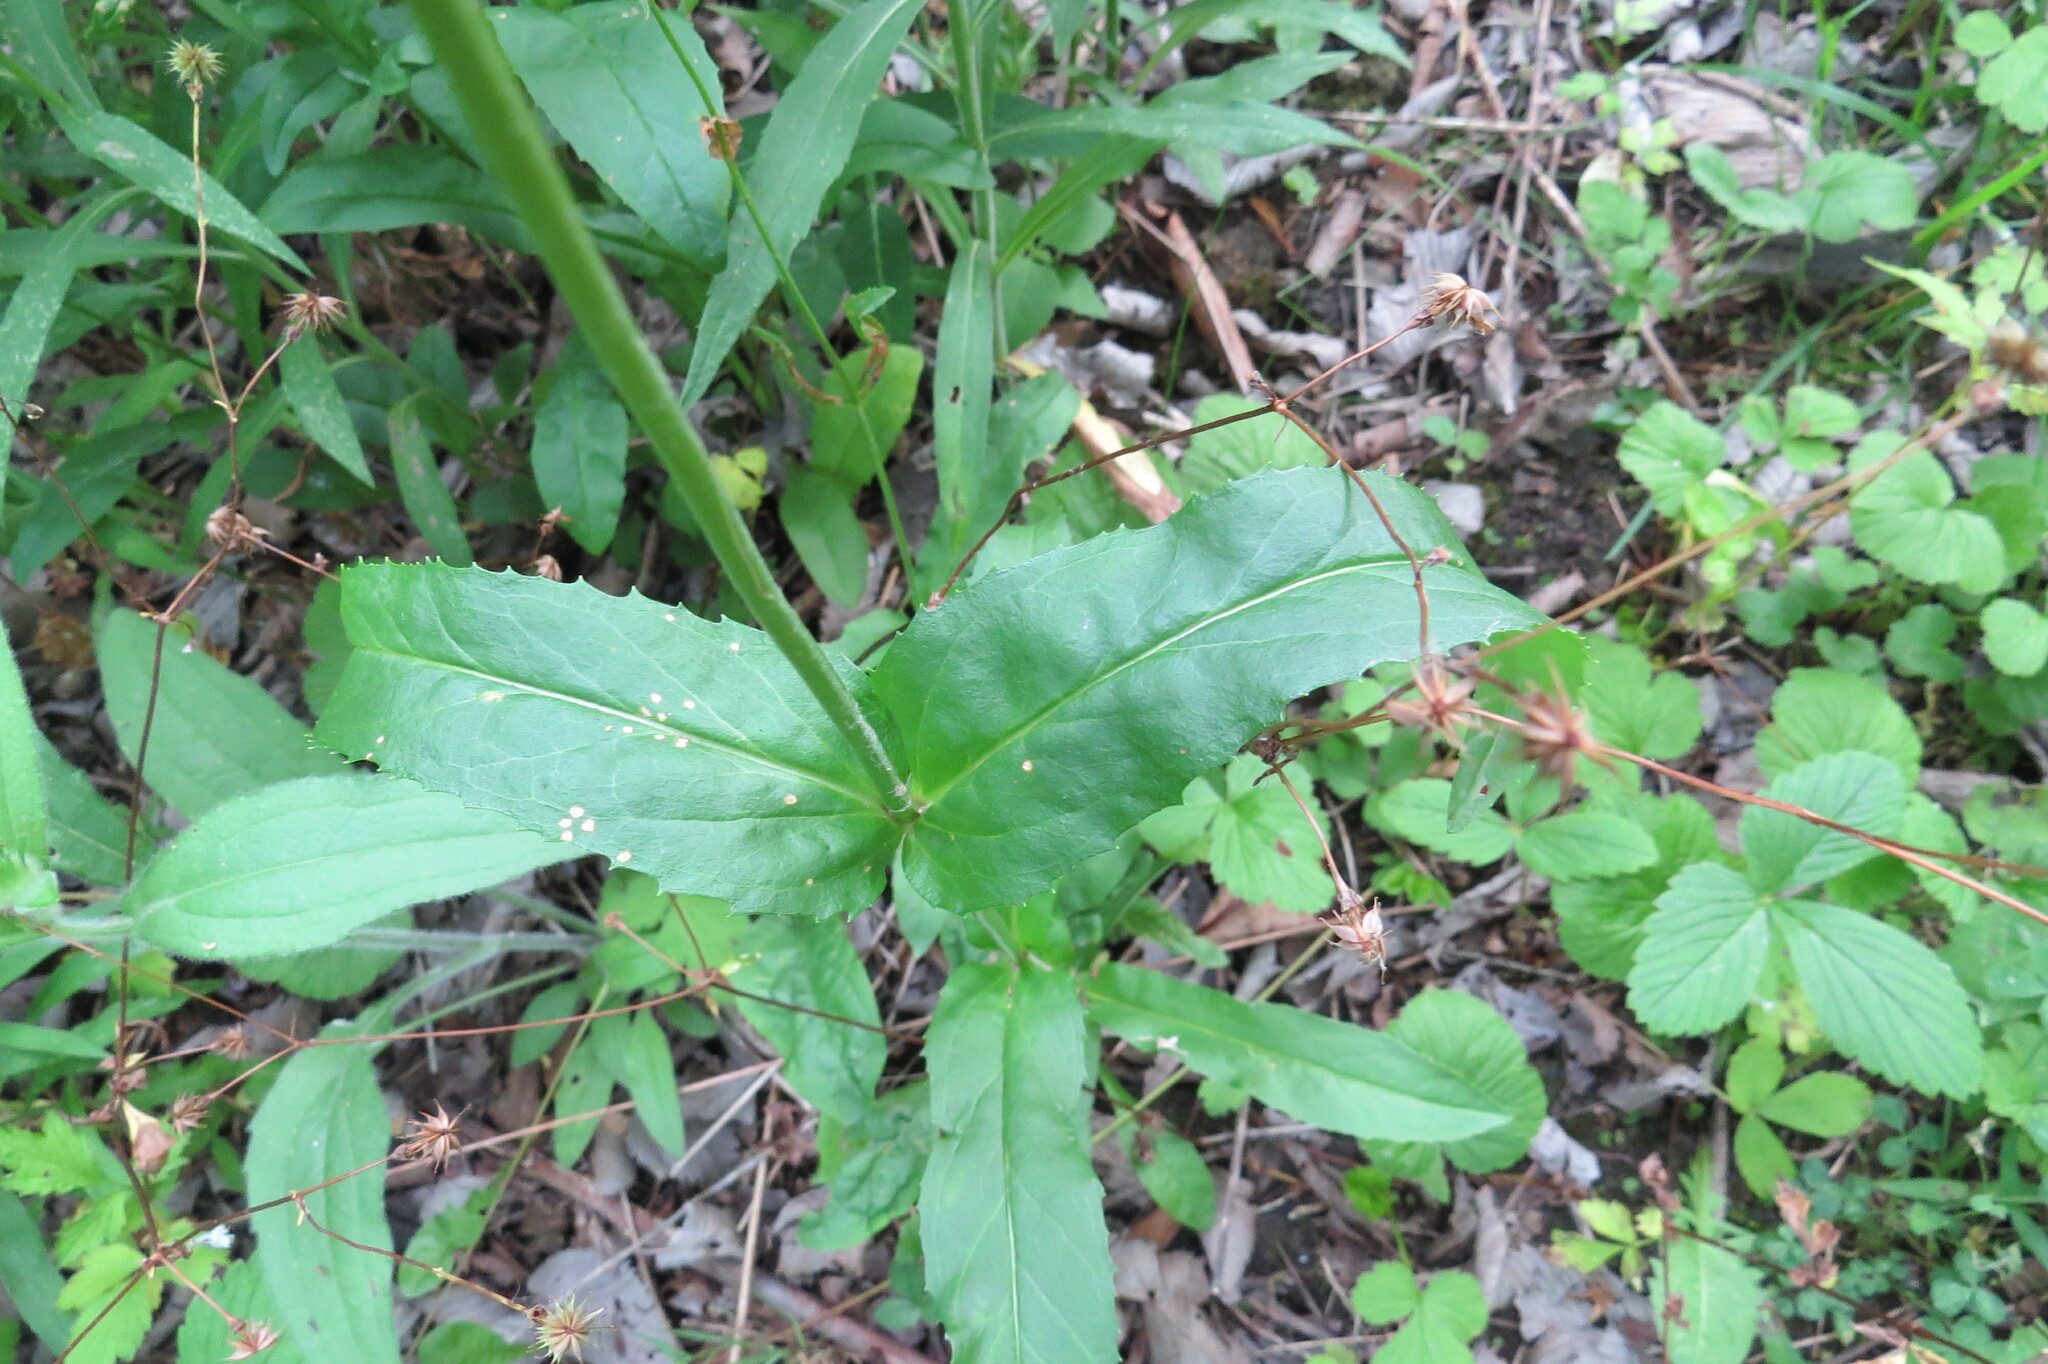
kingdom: Plantae
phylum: Tracheophyta
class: Magnoliopsida
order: Lamiales
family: Plantaginaceae
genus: Penstemon
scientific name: Penstemon digitalis
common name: Foxglove beardtongue
